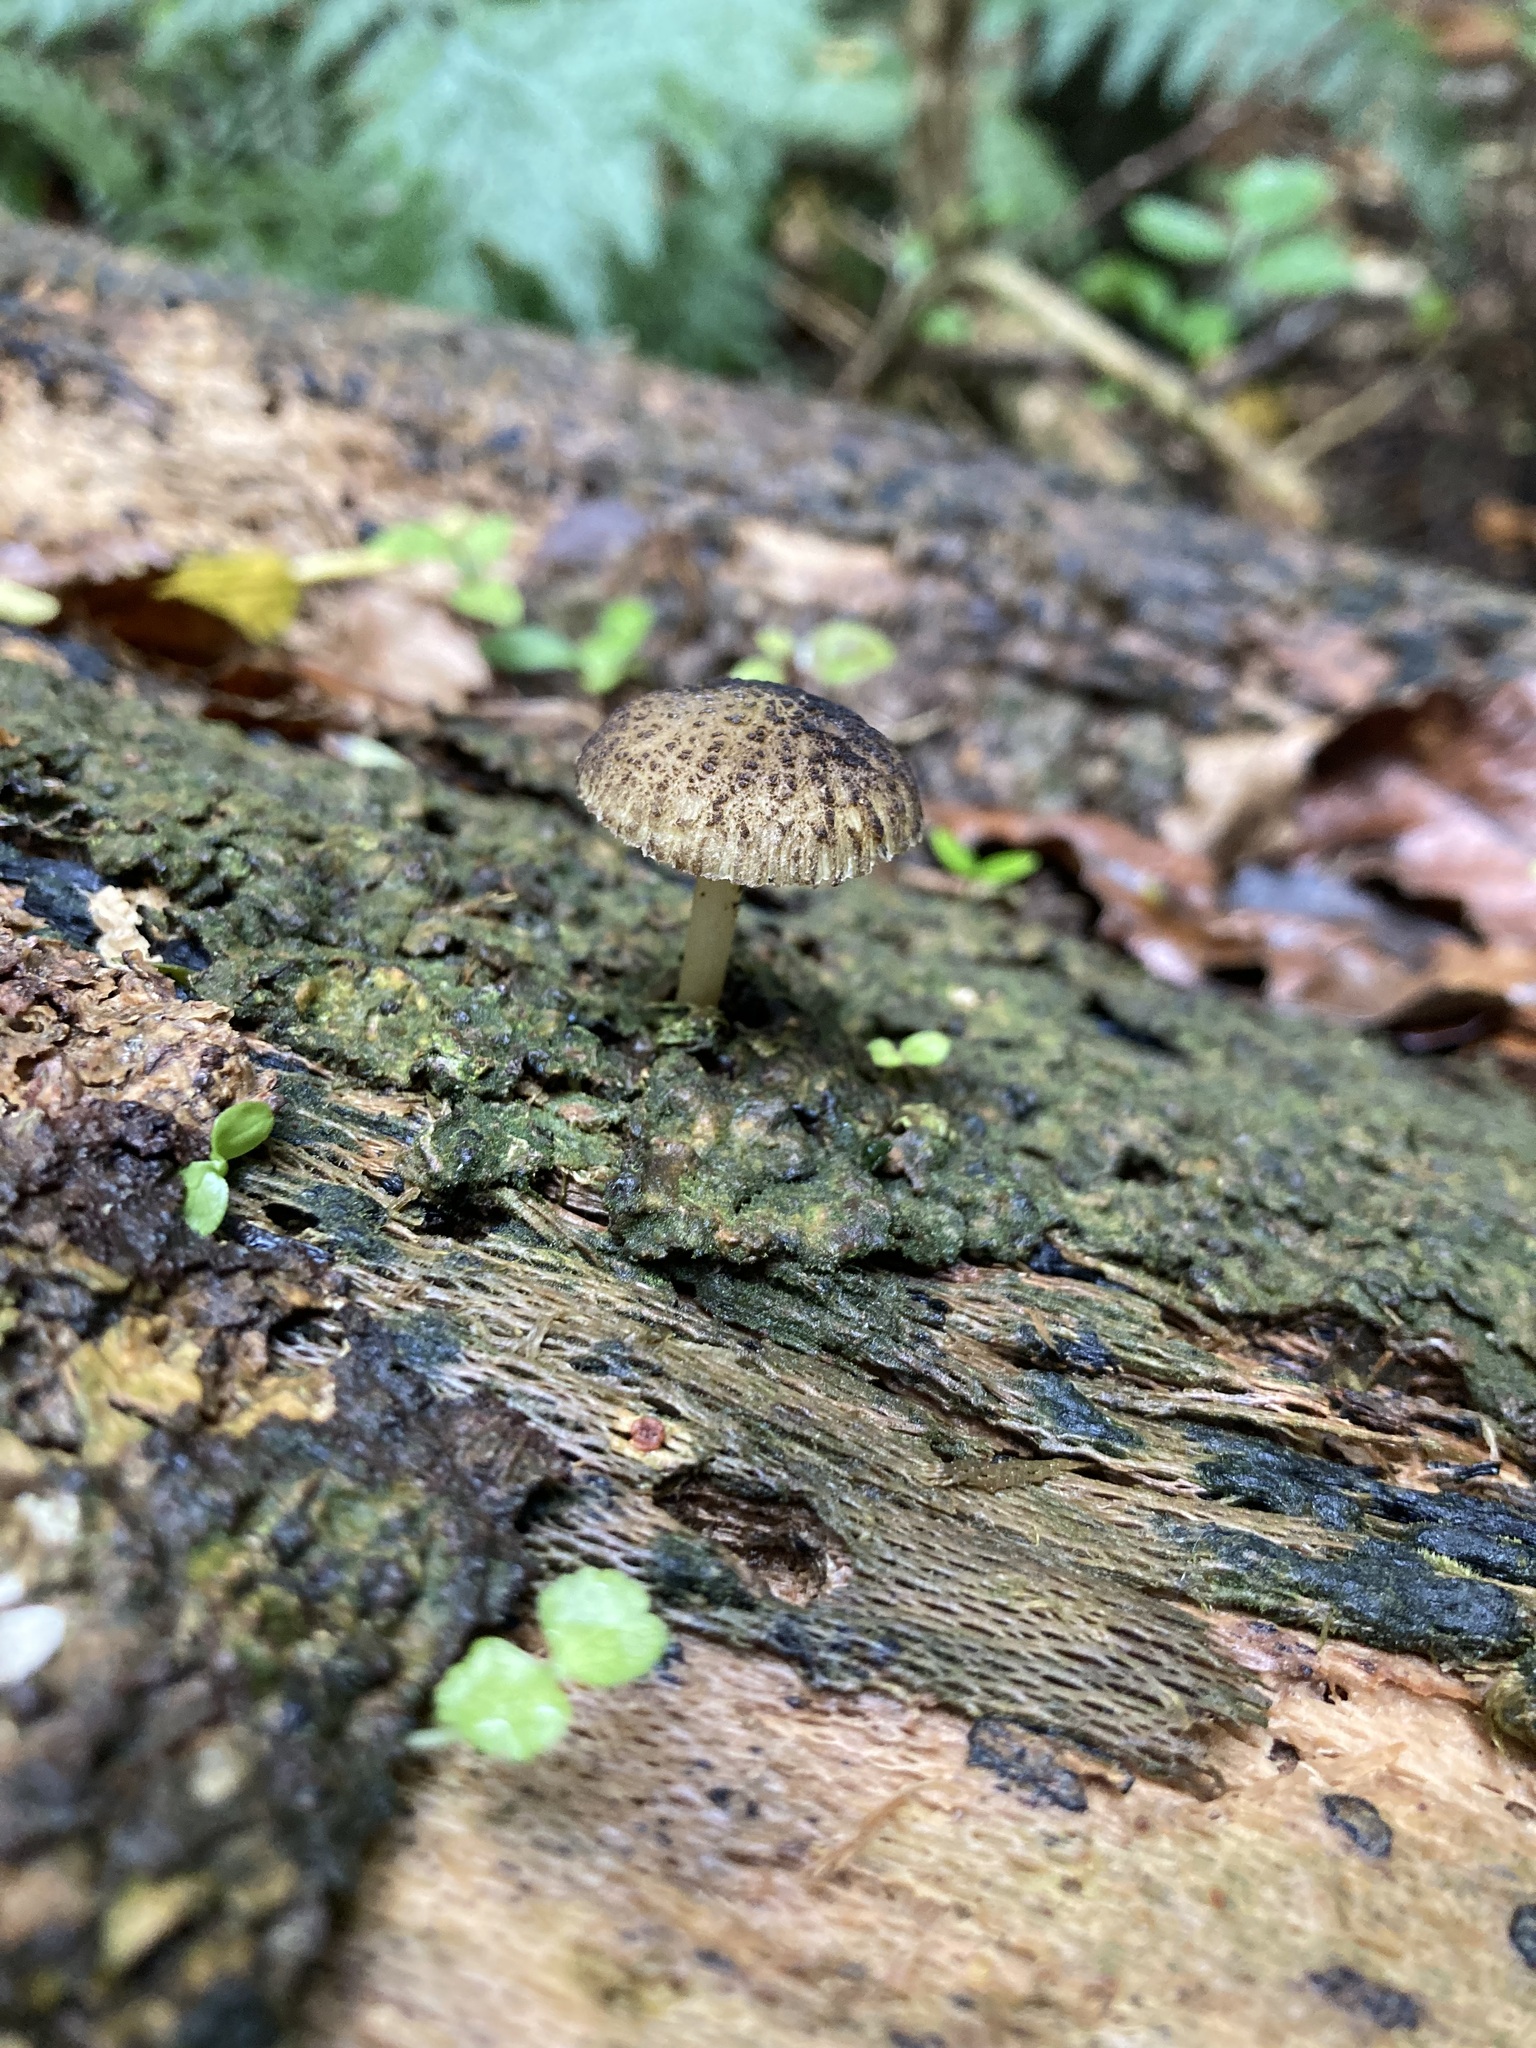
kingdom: Fungi
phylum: Basidiomycota
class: Agaricomycetes
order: Agaricales
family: Pluteaceae
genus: Pluteus
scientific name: Pluteus readiarum
